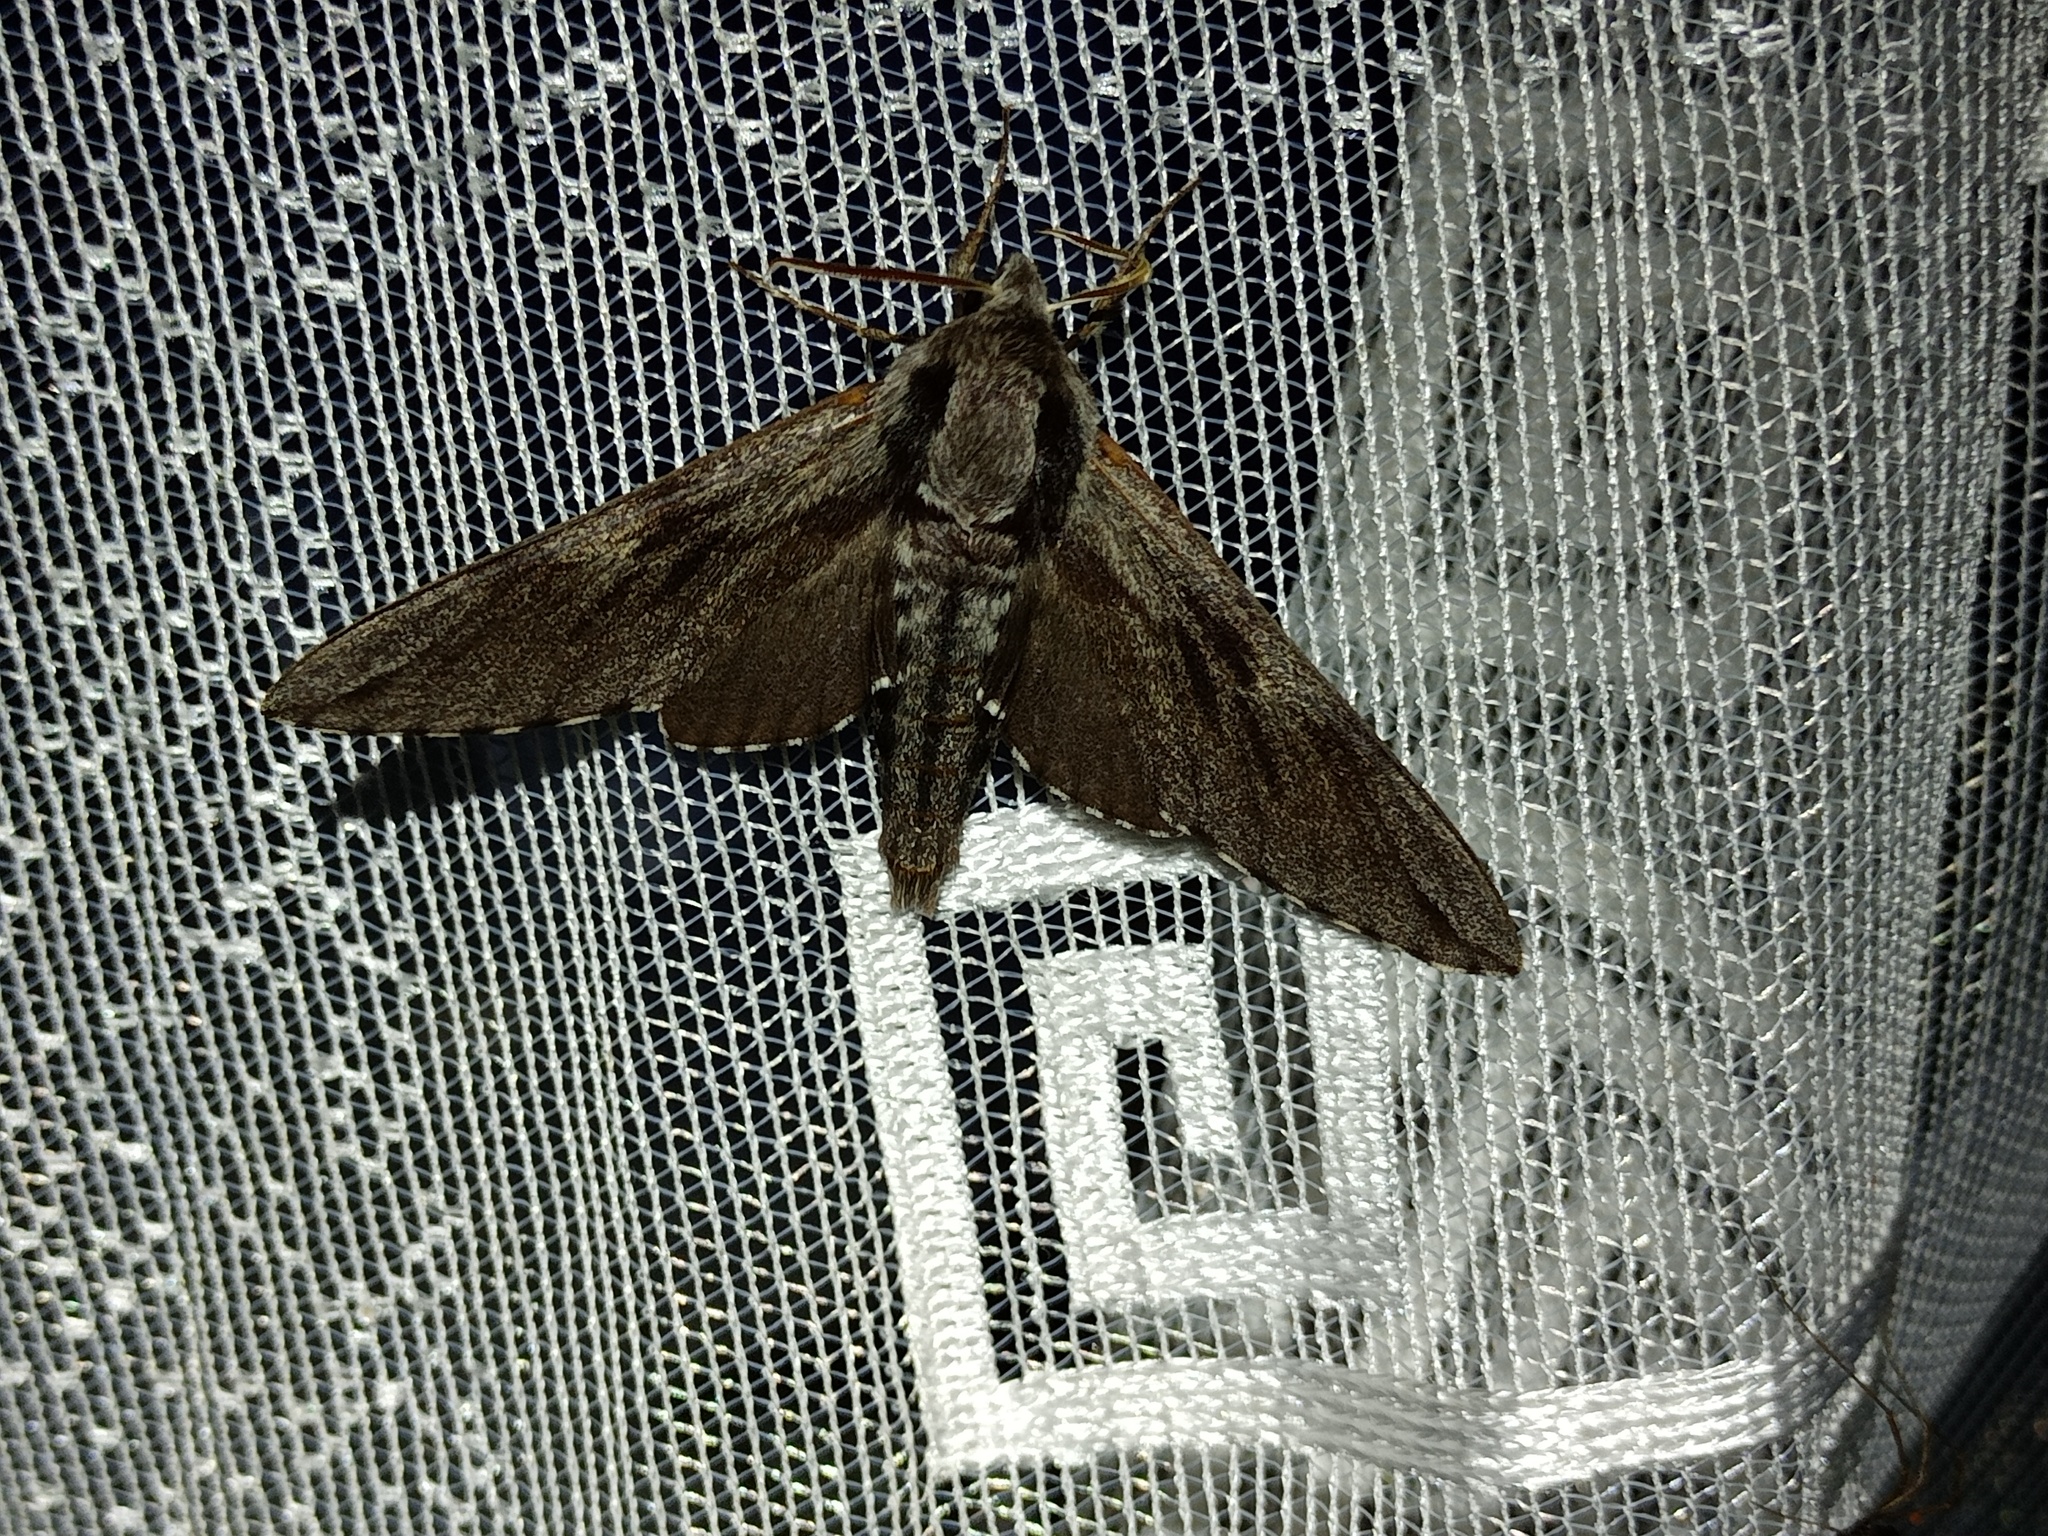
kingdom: Animalia
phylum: Arthropoda
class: Insecta
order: Lepidoptera
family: Sphingidae
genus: Sphinx
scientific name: Sphinx pinastri
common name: Pine hawk-moth
